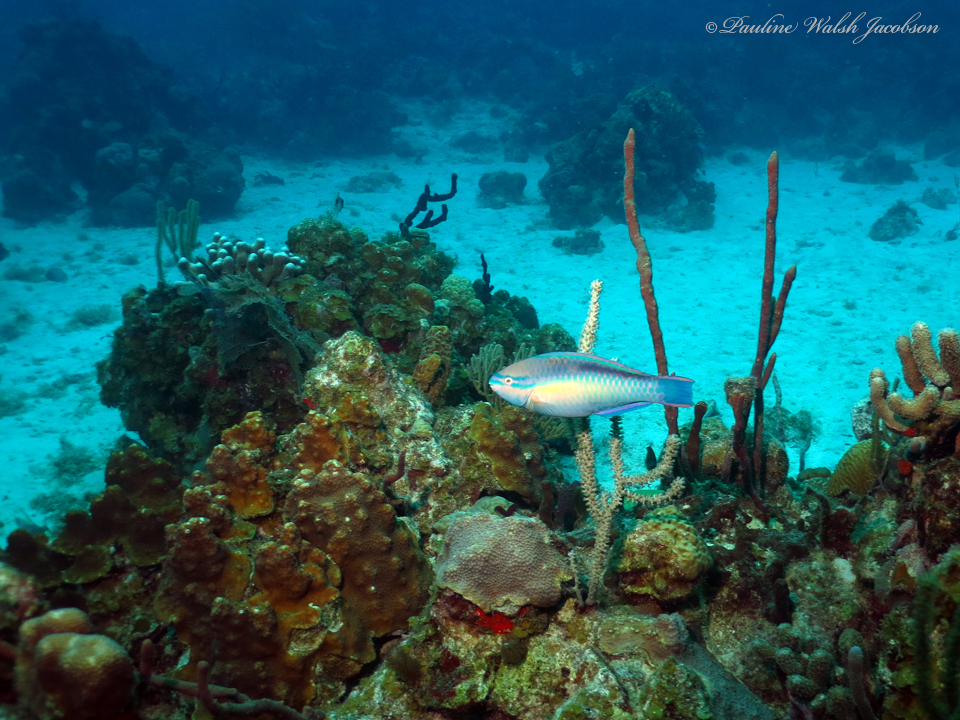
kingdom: Animalia
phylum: Chordata
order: Perciformes
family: Scaridae
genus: Scarus
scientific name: Scarus taeniopterus
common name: Princess parrotfish
